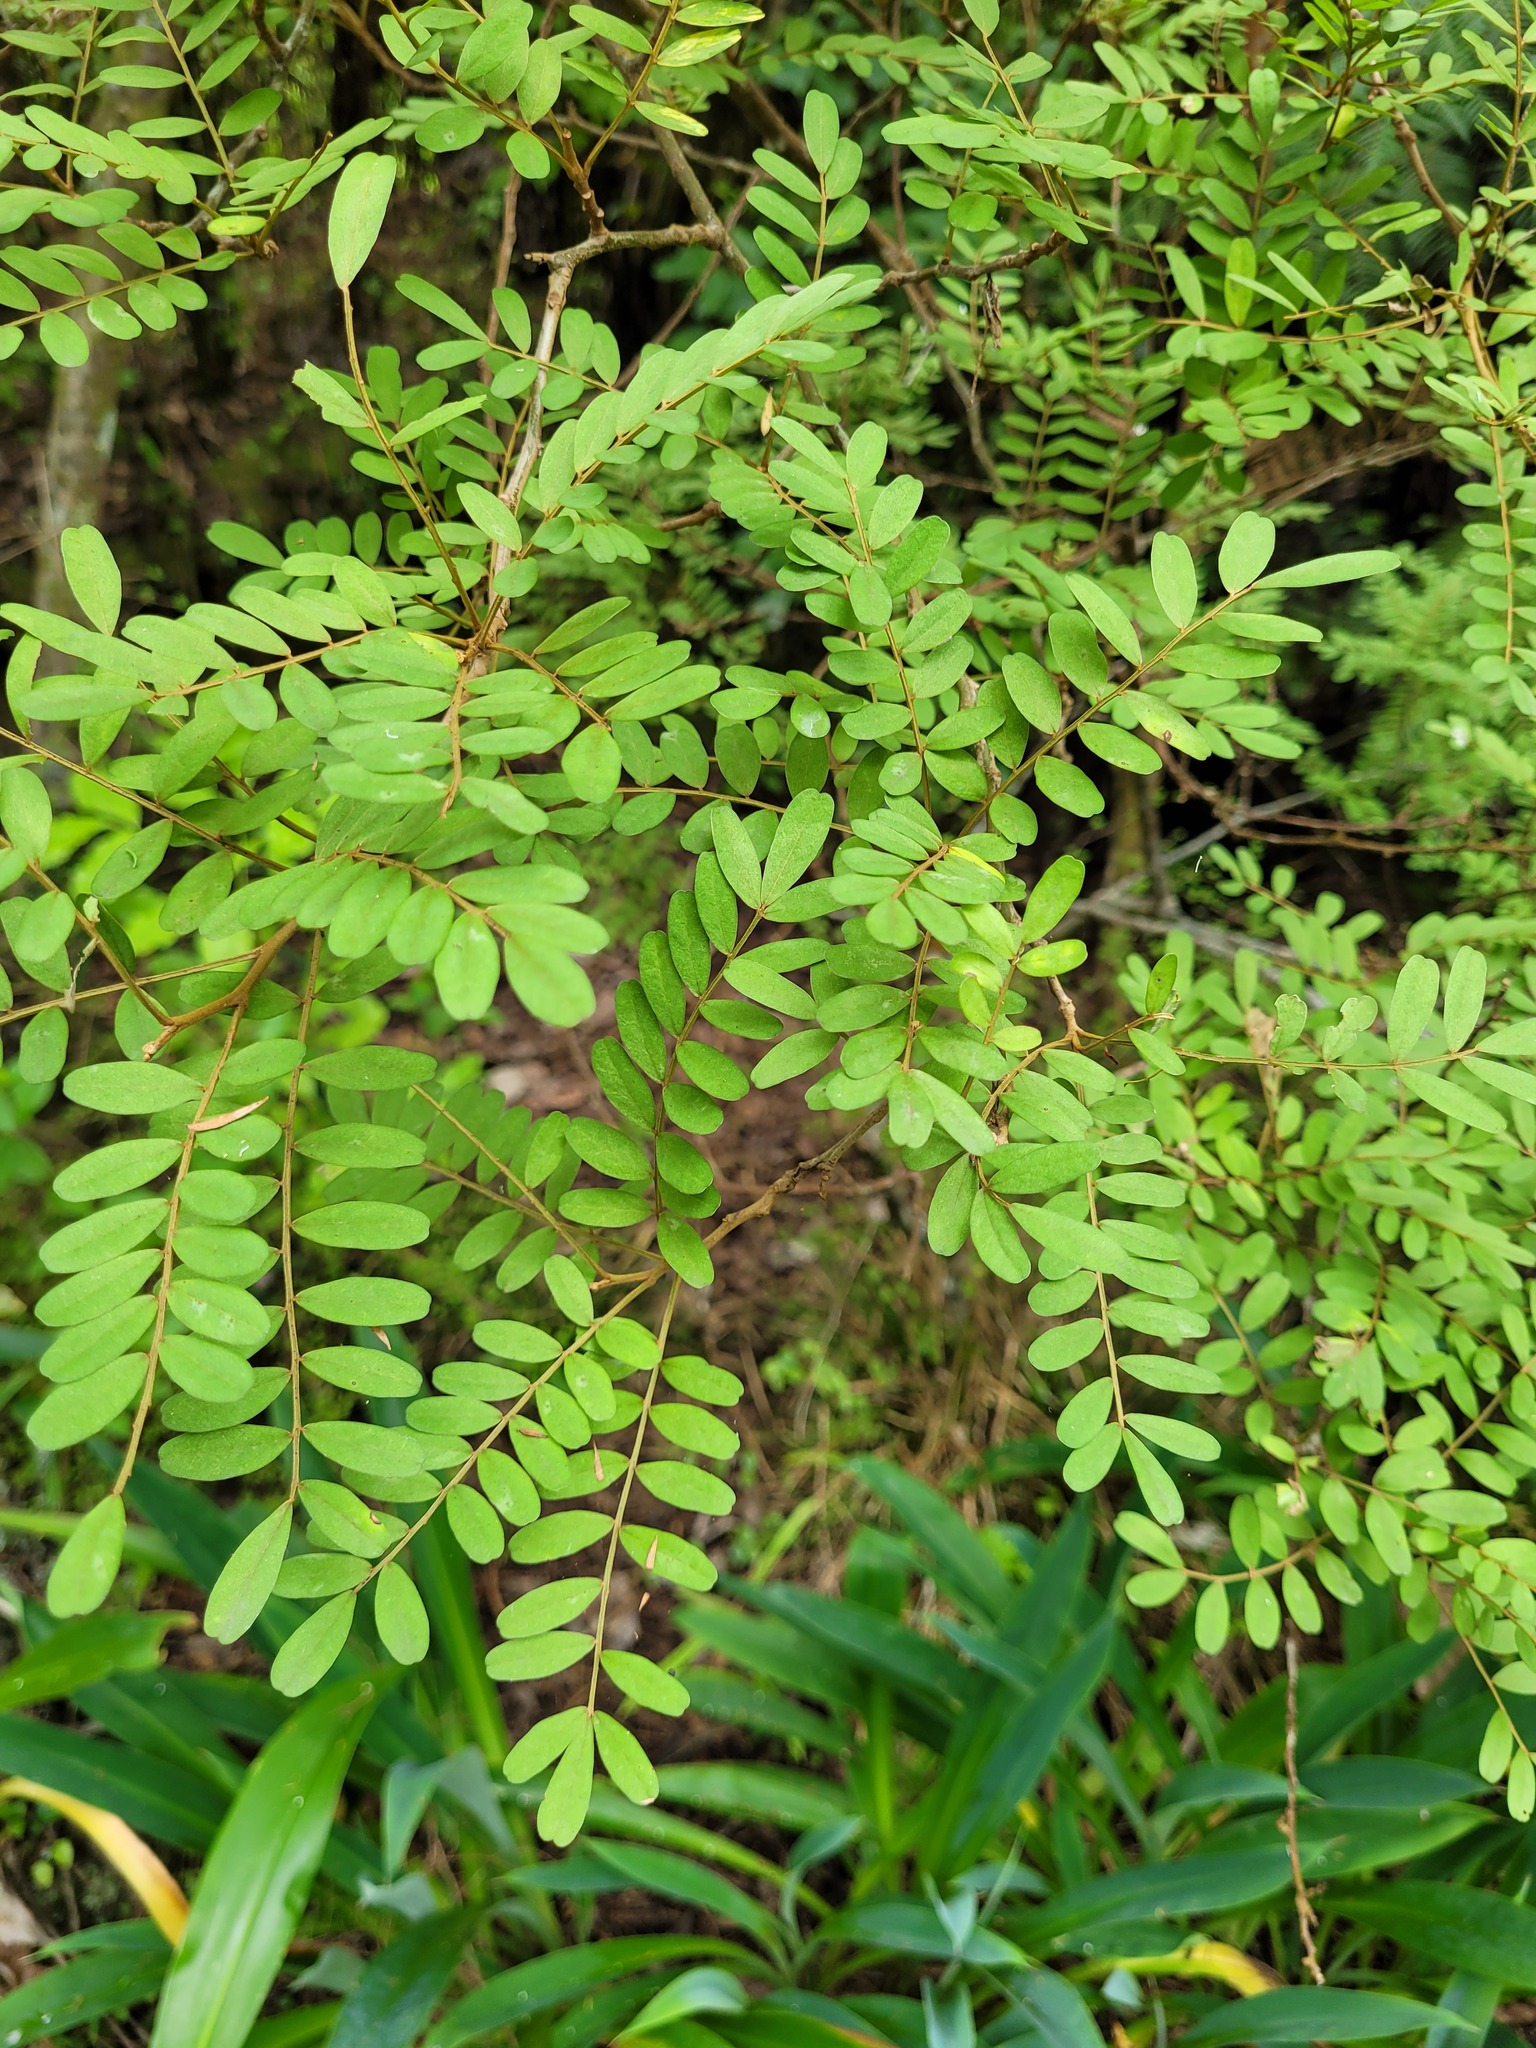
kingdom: Plantae
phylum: Tracheophyta
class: Magnoliopsida
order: Fabales
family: Fabaceae
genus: Sophora
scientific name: Sophora tetraptera
